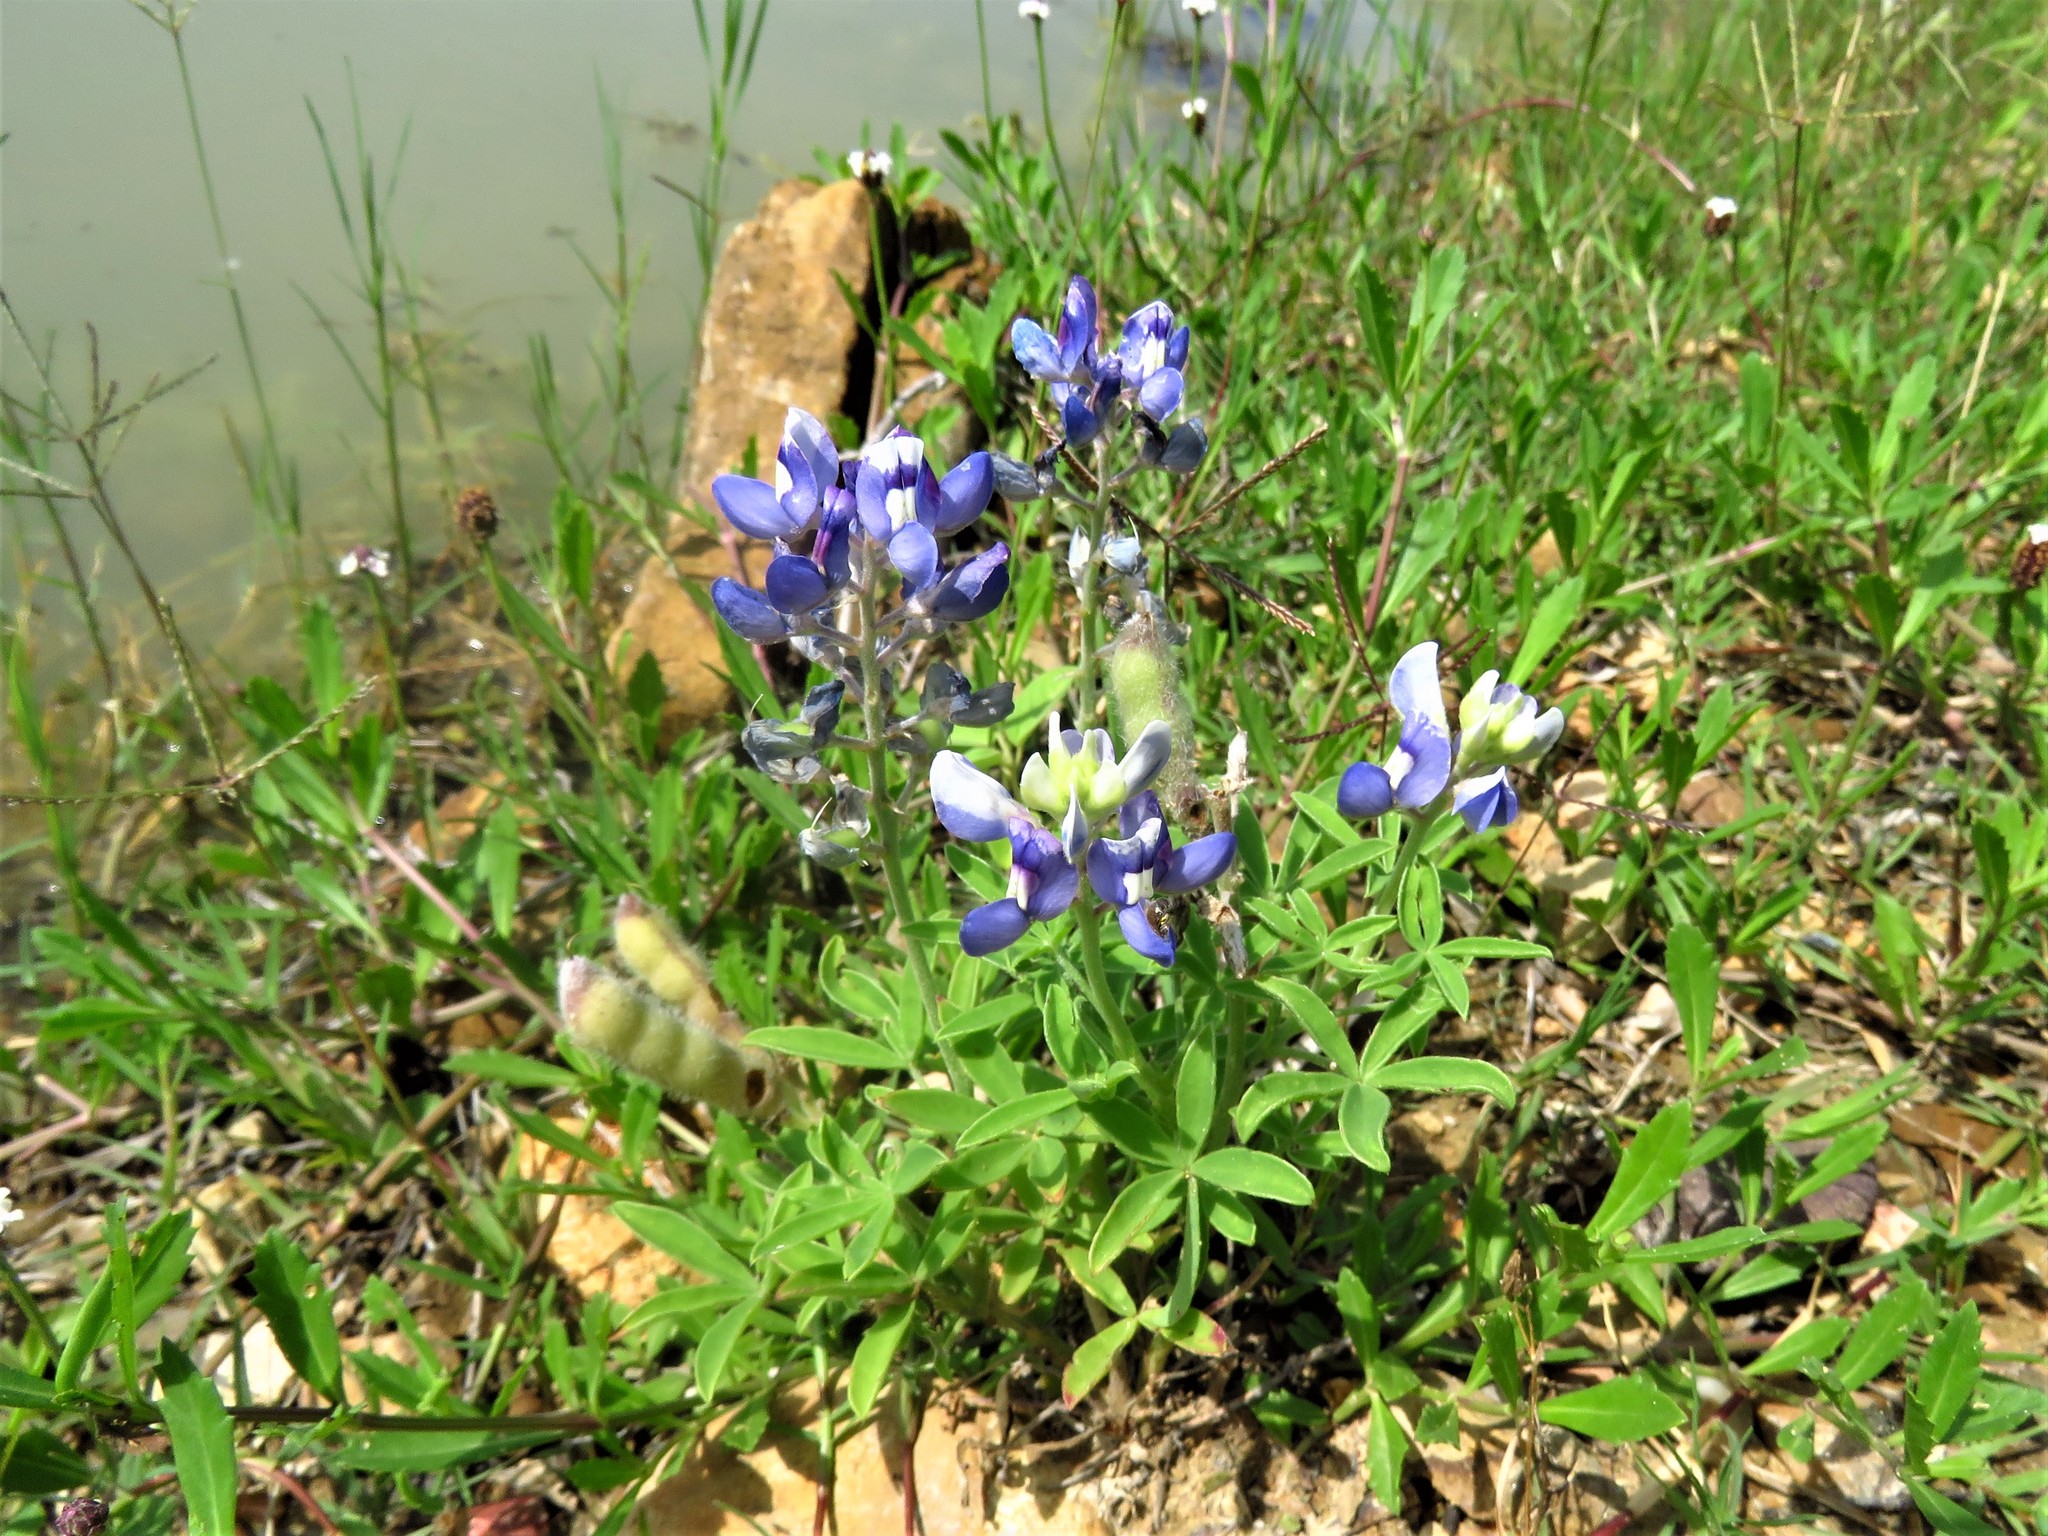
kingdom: Plantae
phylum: Tracheophyta
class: Magnoliopsida
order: Fabales
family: Fabaceae
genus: Lupinus
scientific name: Lupinus texensis
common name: Texas bluebonnet
